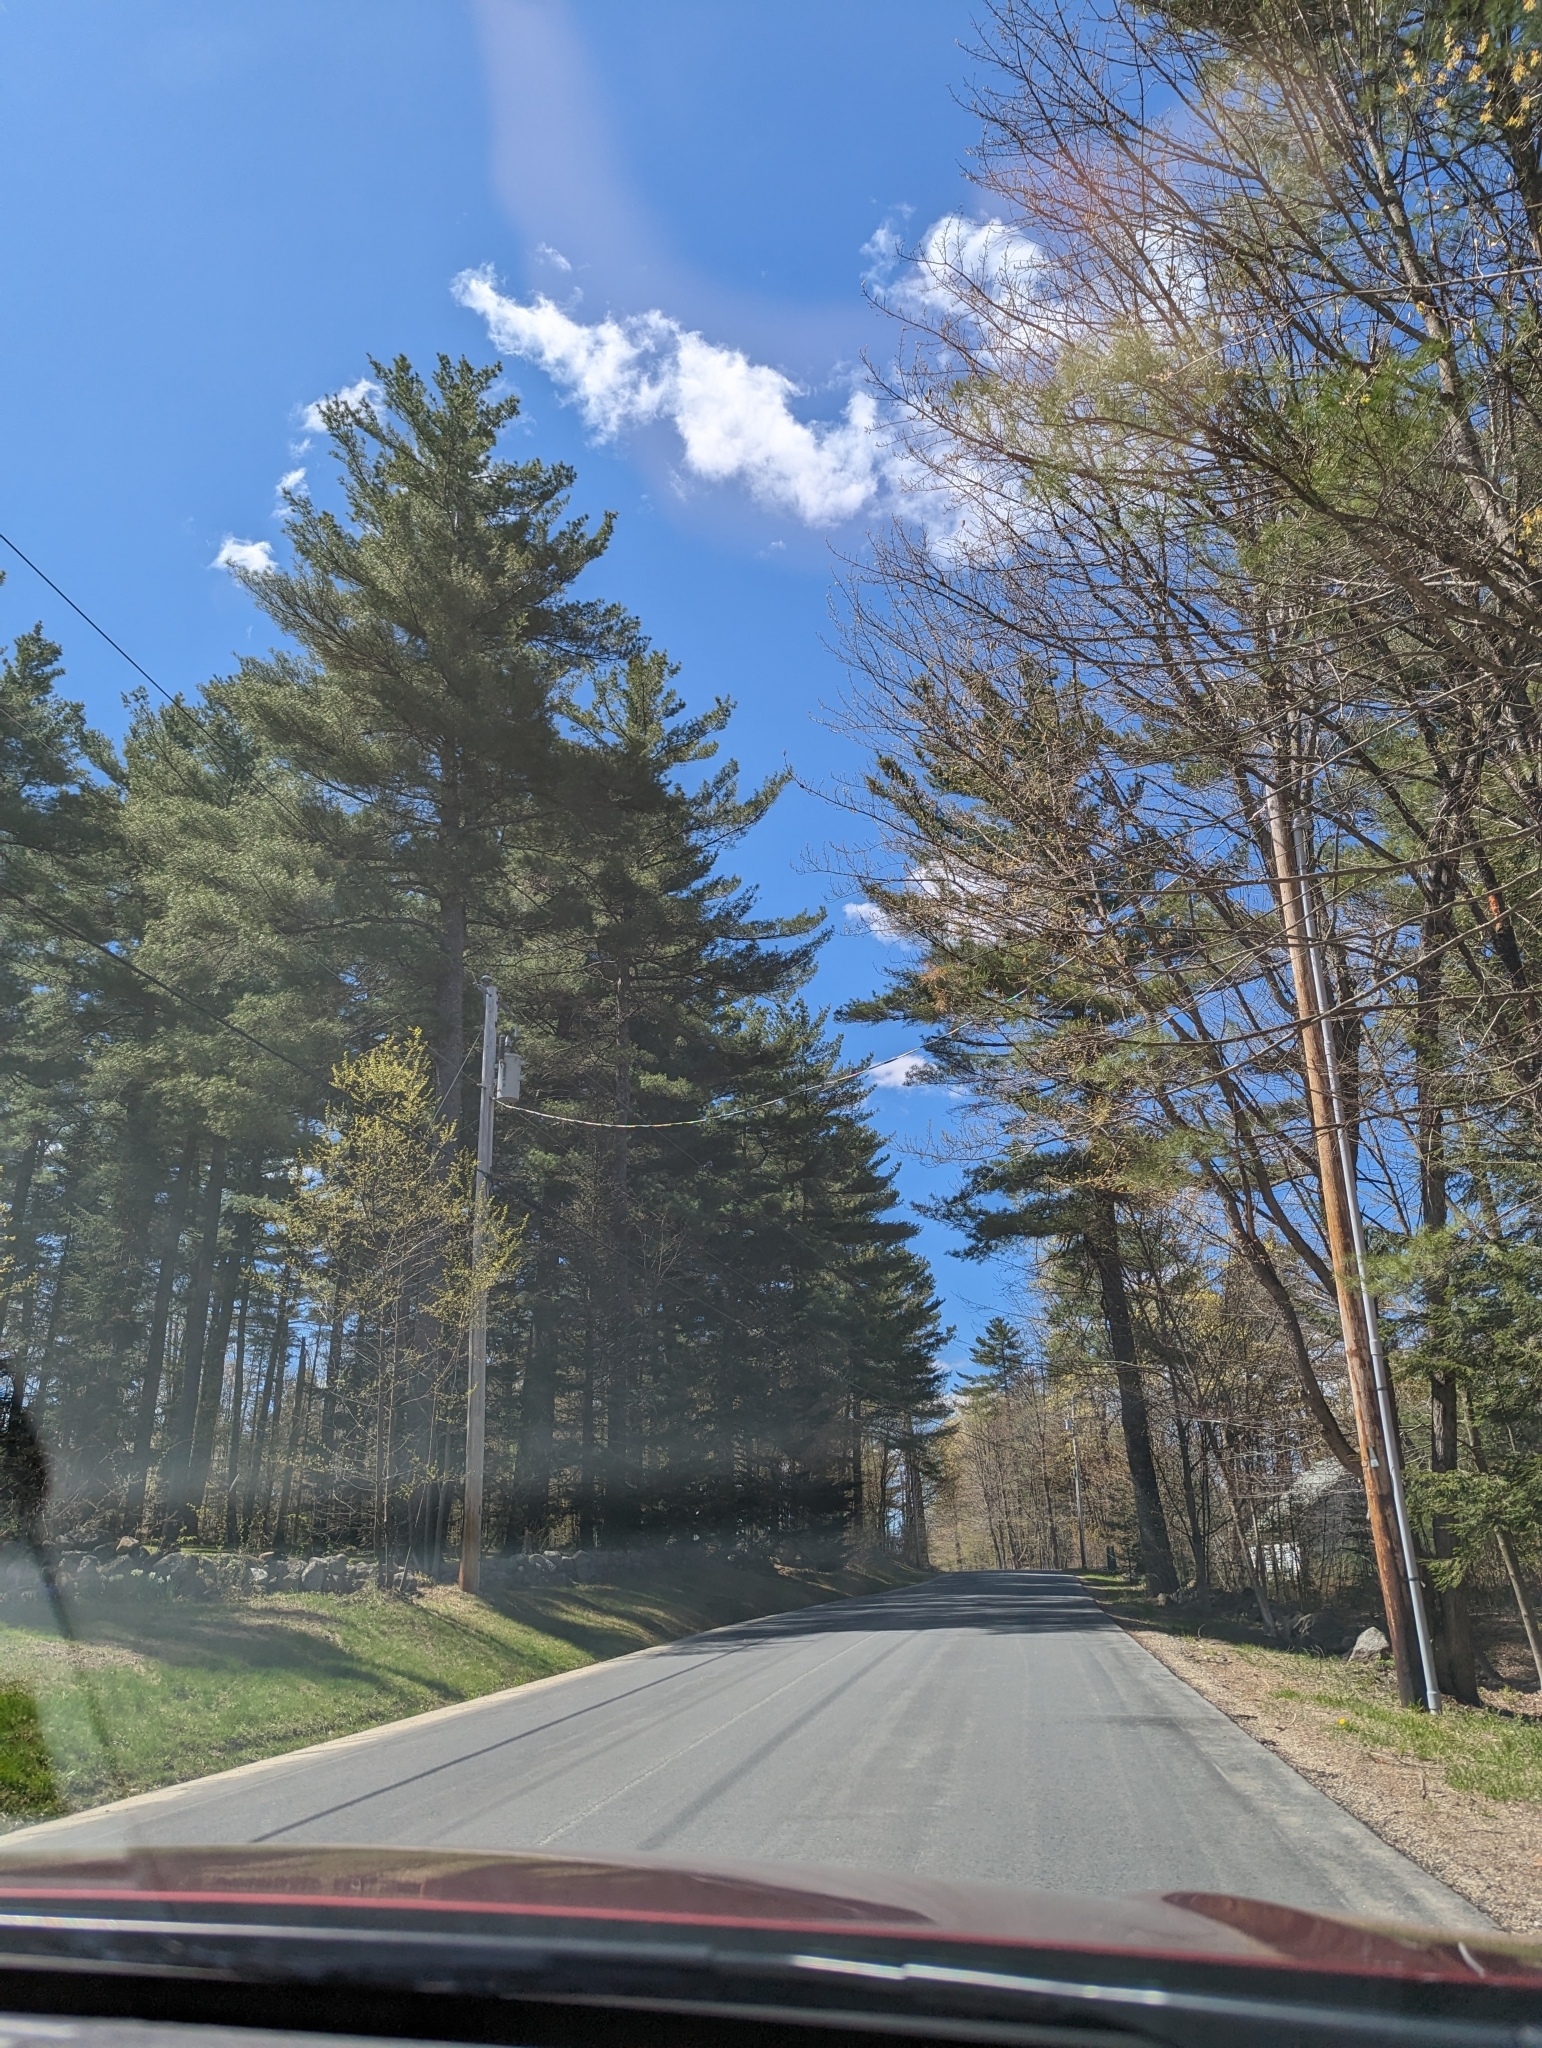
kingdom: Plantae
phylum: Tracheophyta
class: Pinopsida
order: Pinales
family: Pinaceae
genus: Pinus
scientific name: Pinus strobus
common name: Weymouth pine
